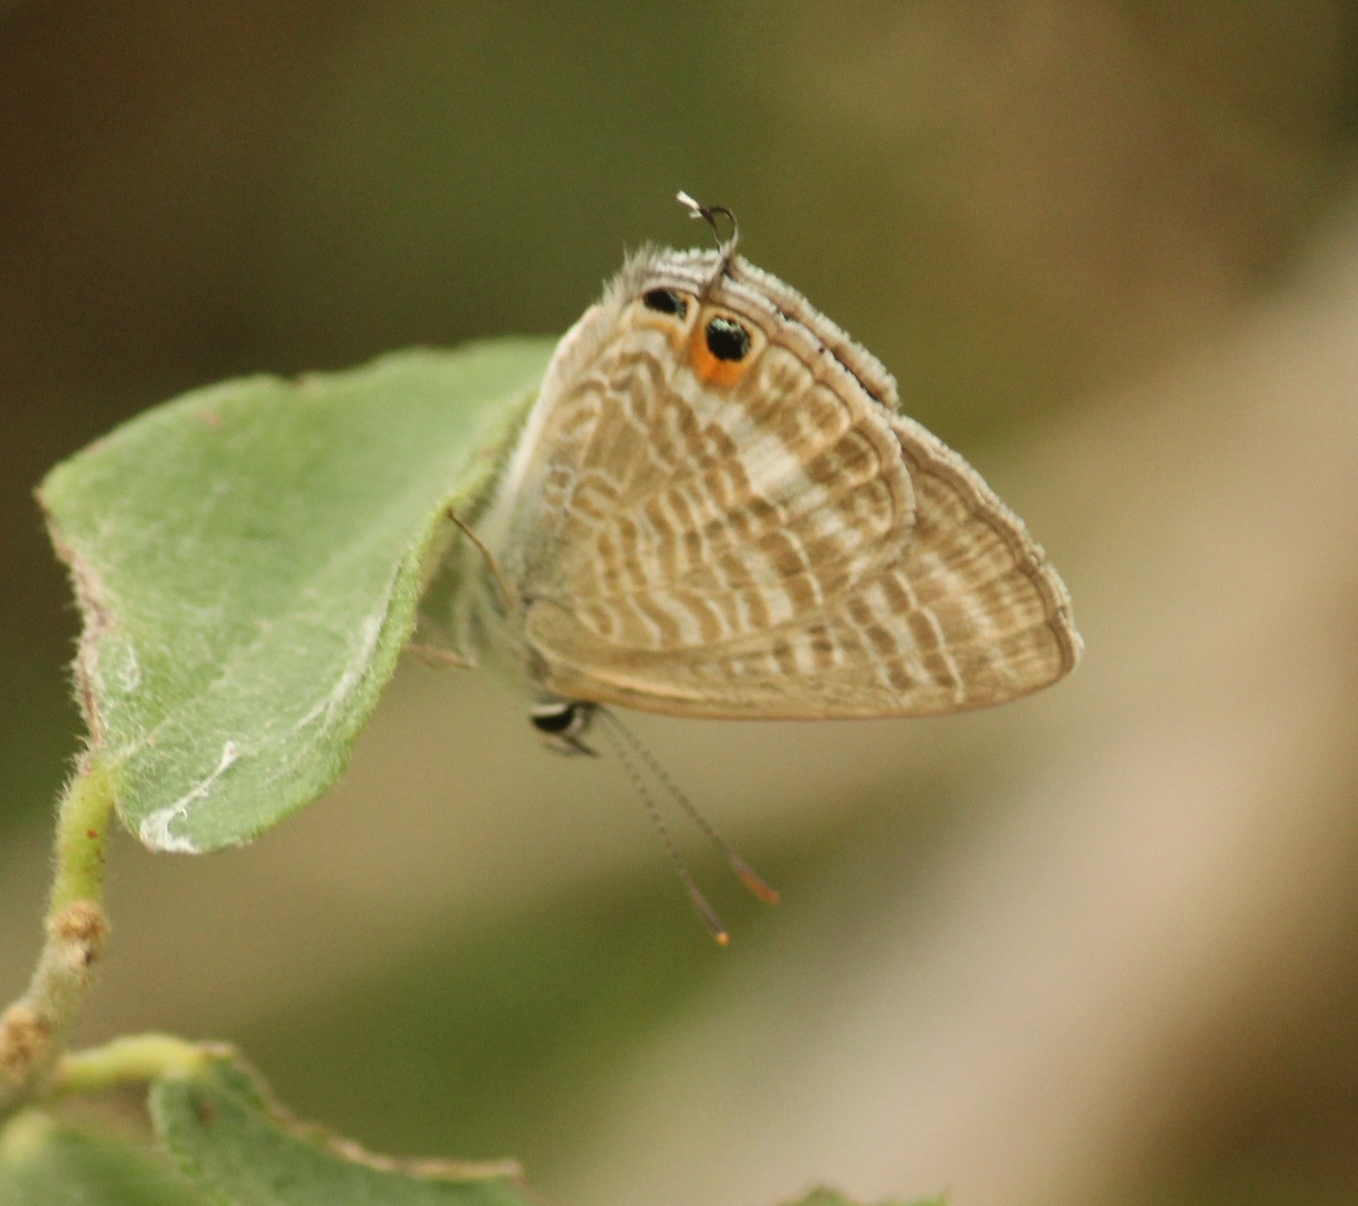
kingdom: Animalia
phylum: Arthropoda
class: Insecta
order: Lepidoptera
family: Lycaenidae
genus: Lampides
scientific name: Lampides boeticus
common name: Long-tailed blue
